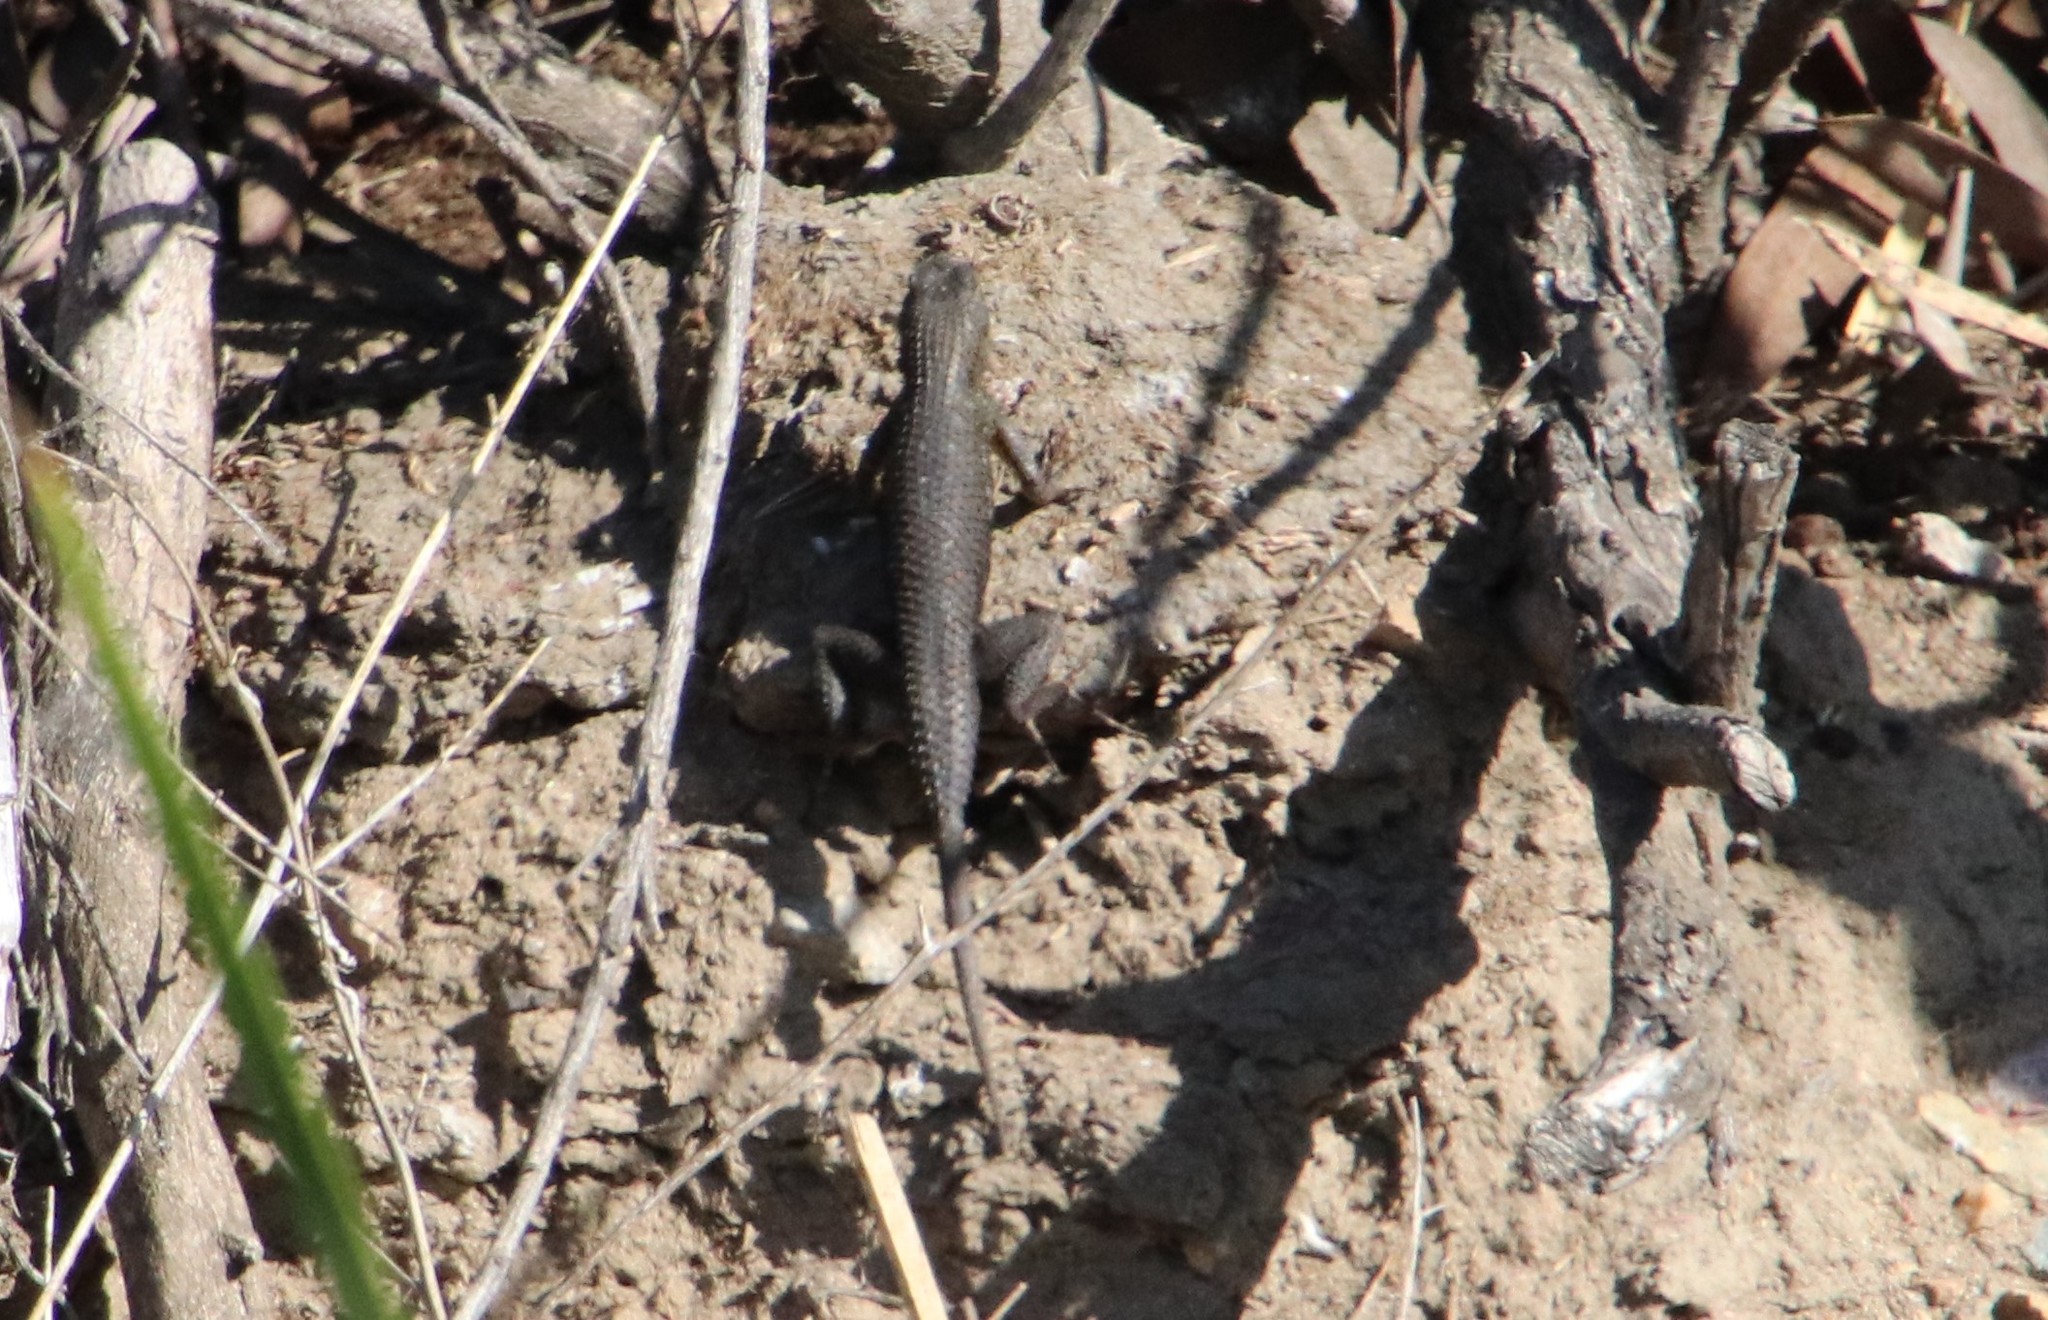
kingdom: Animalia
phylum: Chordata
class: Squamata
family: Phrynosomatidae
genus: Sceloporus
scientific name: Sceloporus occidentalis
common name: Western fence lizard
